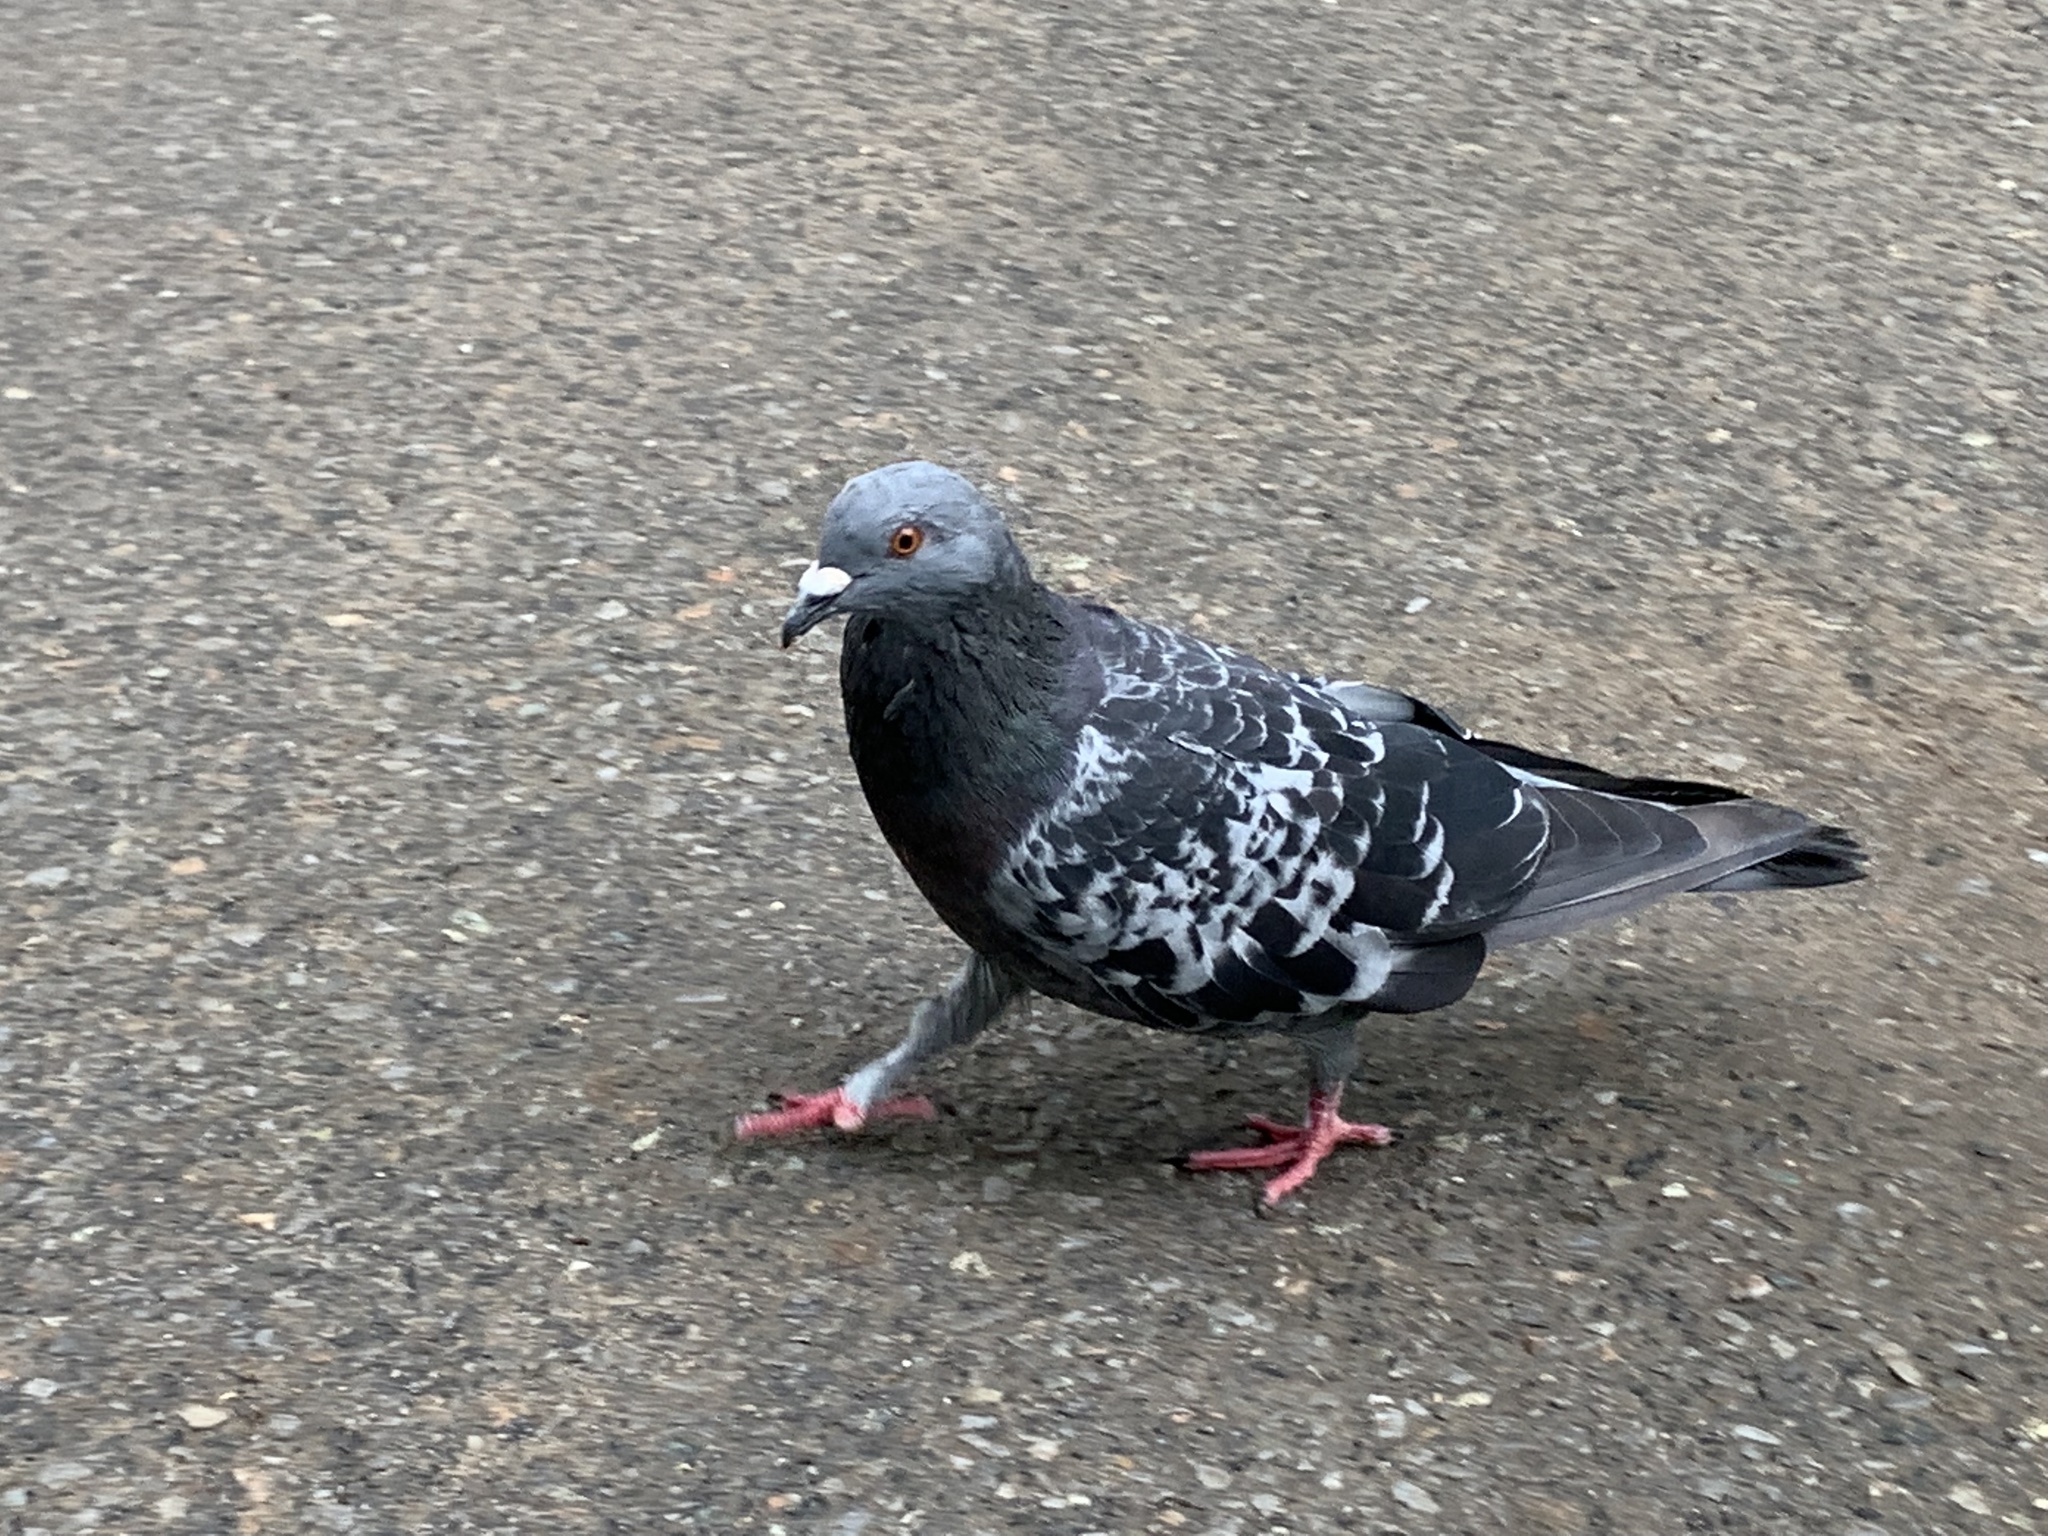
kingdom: Animalia
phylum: Chordata
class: Aves
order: Columbiformes
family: Columbidae
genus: Columba
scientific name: Columba livia
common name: Rock pigeon
